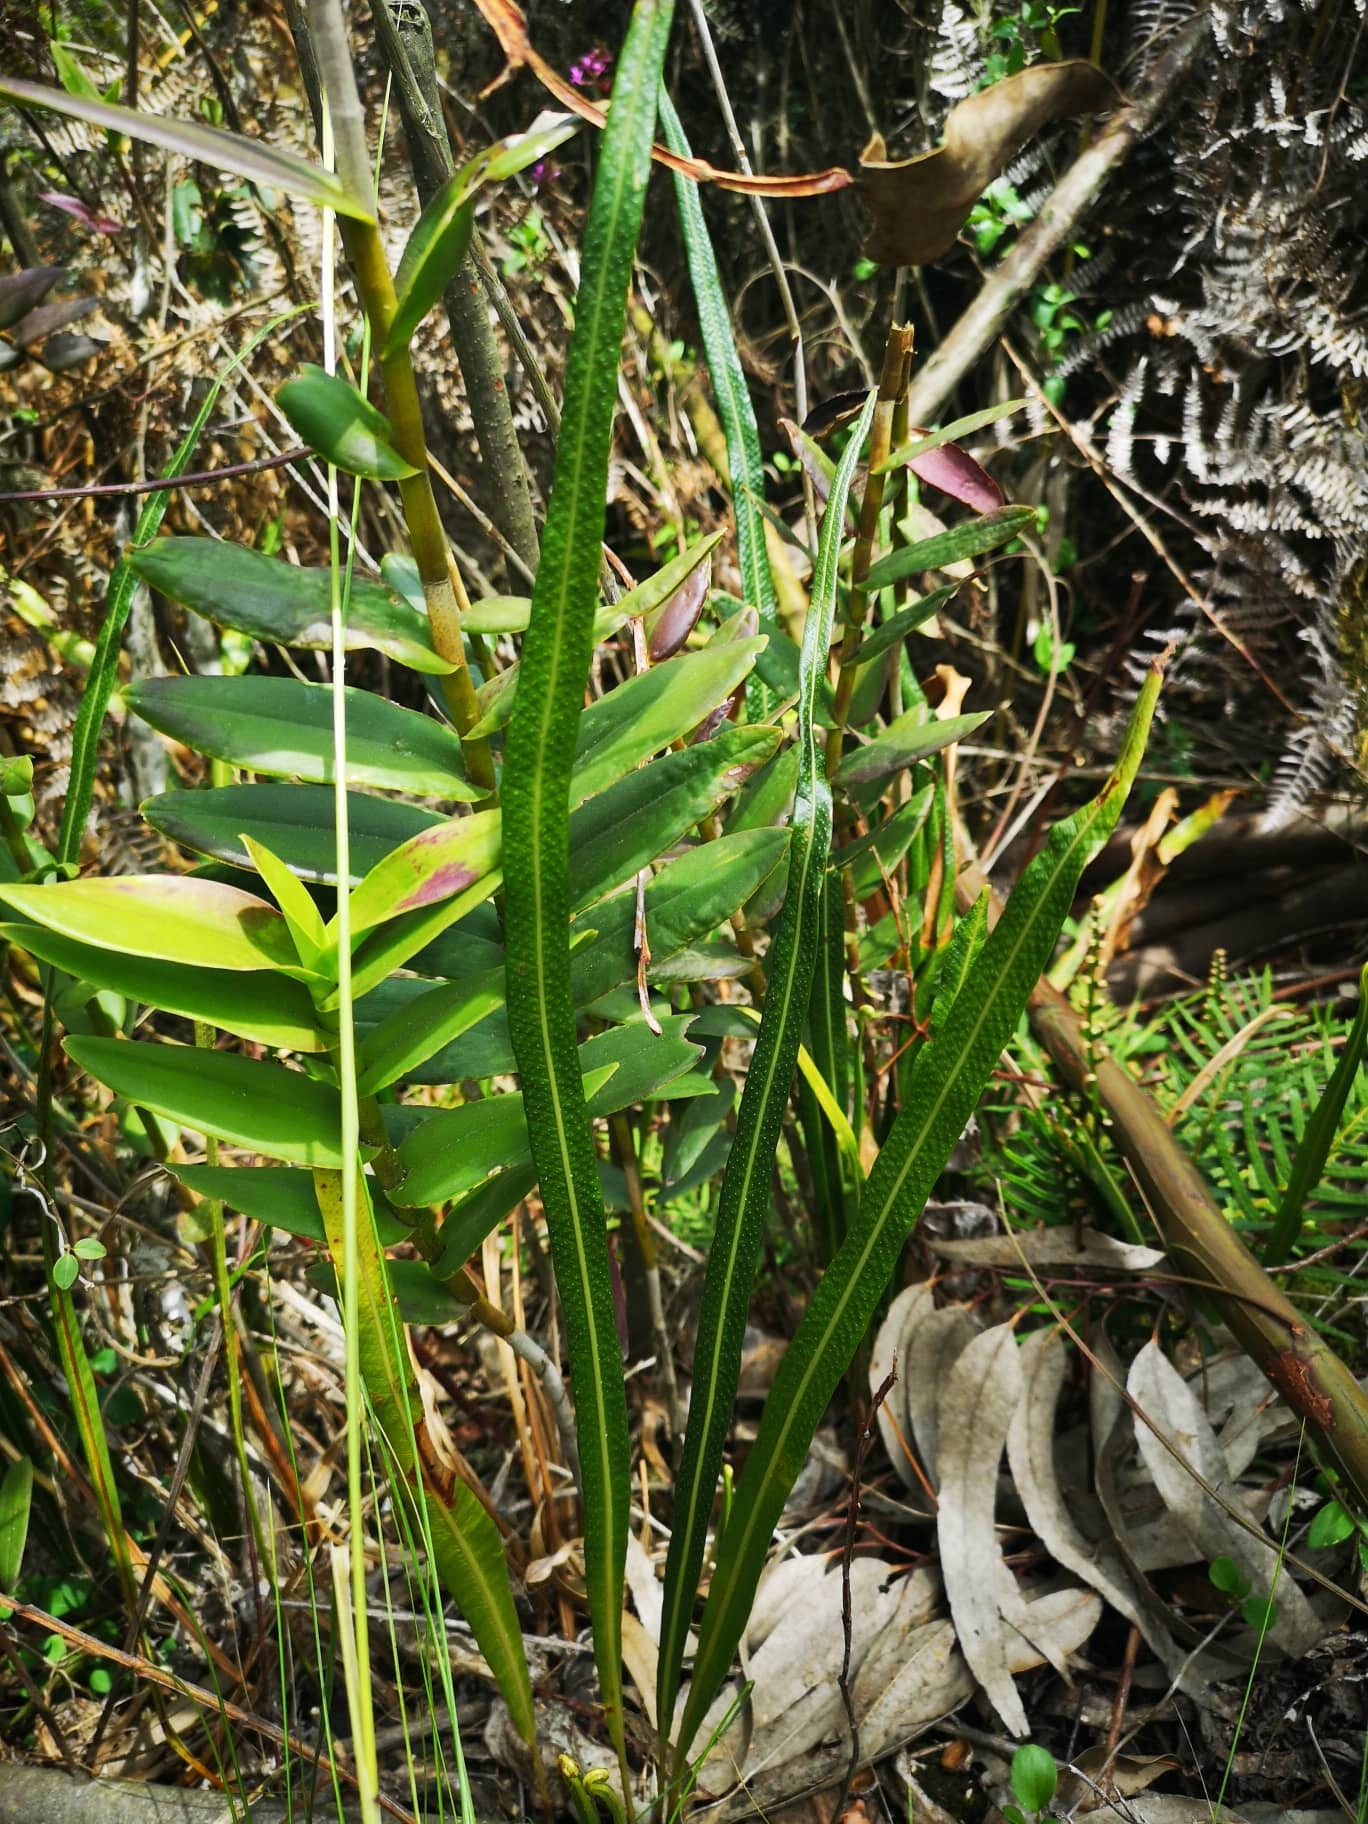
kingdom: Plantae
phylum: Tracheophyta
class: Polypodiopsida
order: Polypodiales
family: Polypodiaceae
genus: Campyloneurum
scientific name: Campyloneurum amphostenon
